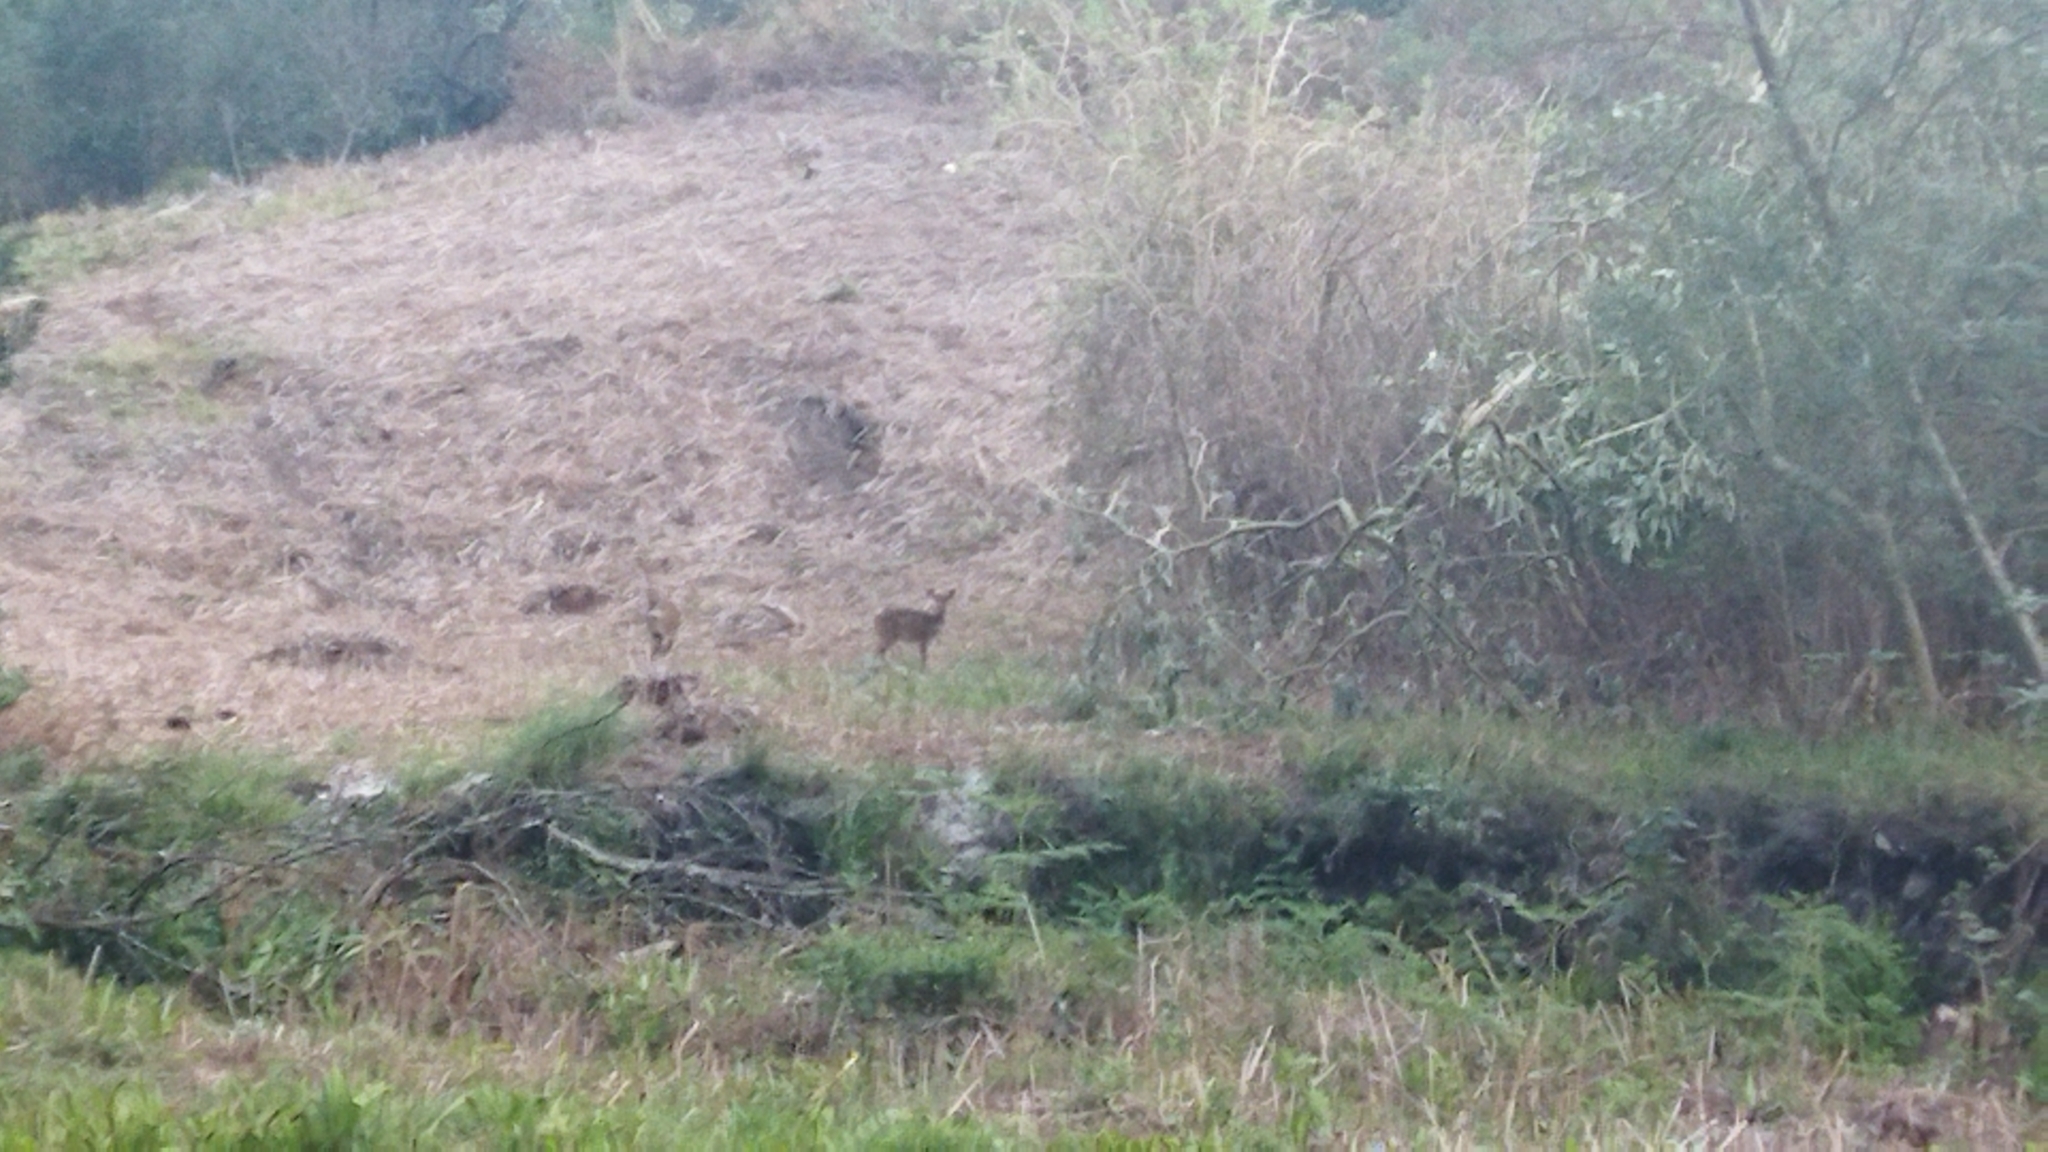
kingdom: Animalia
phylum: Chordata
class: Mammalia
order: Artiodactyla
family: Bovidae
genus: Tragelaphus
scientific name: Tragelaphus scriptus
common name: Bushbuck
